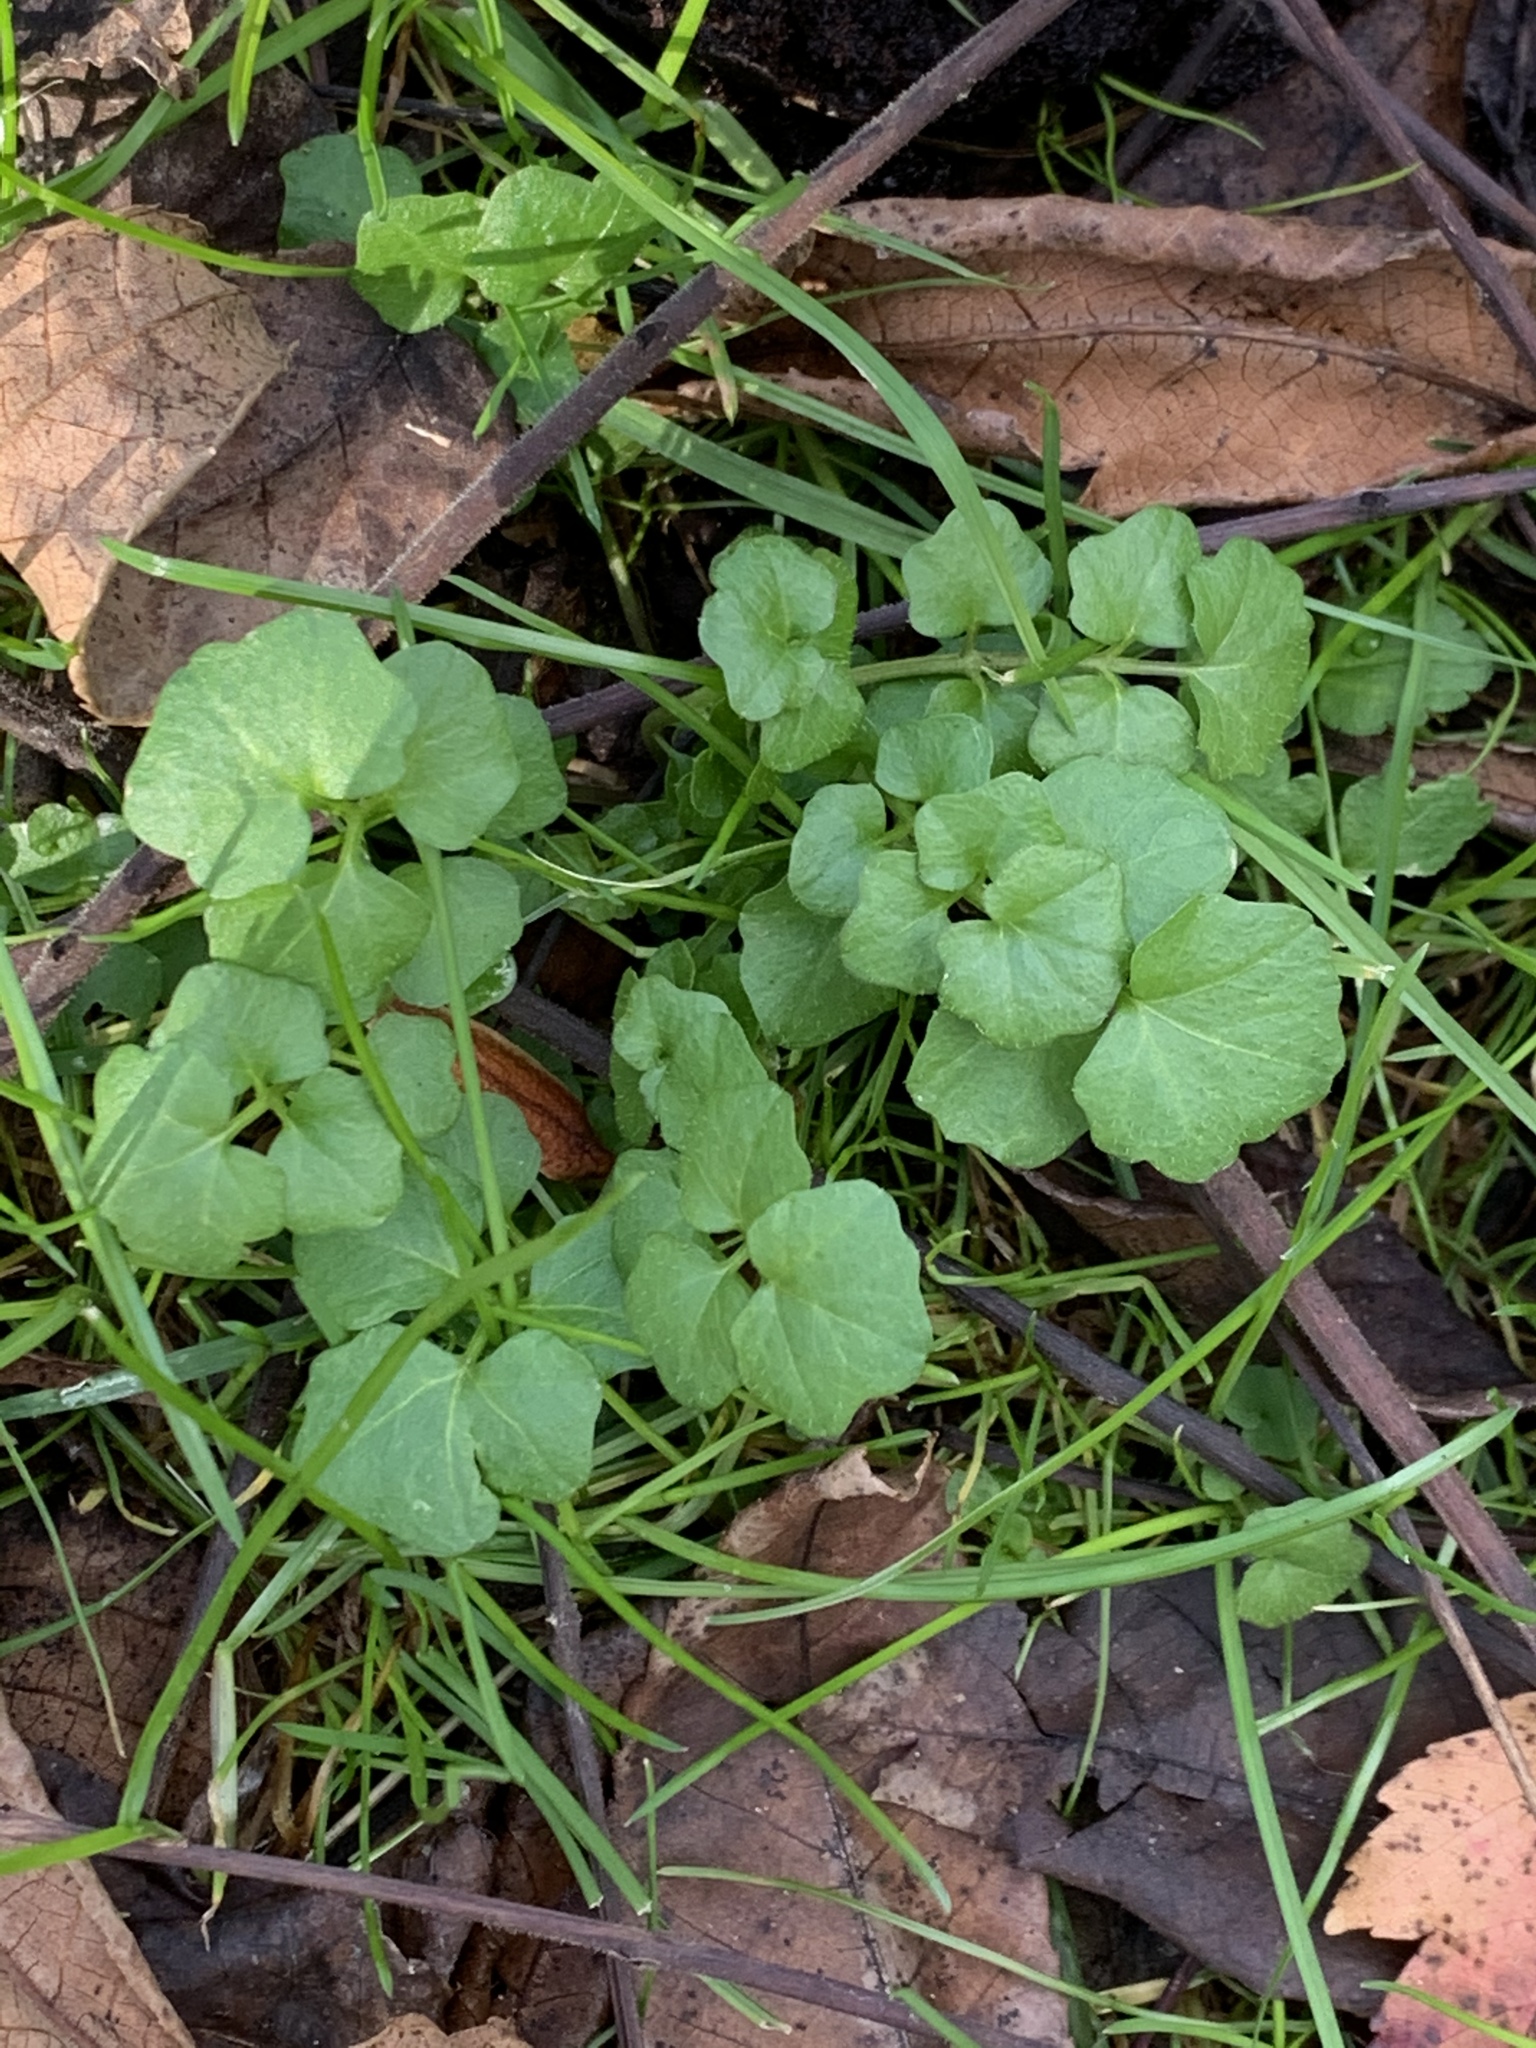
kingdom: Plantae
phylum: Tracheophyta
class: Magnoliopsida
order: Brassicales
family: Brassicaceae
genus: Cardamine
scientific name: Cardamine hirsuta
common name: Hairy bittercress
